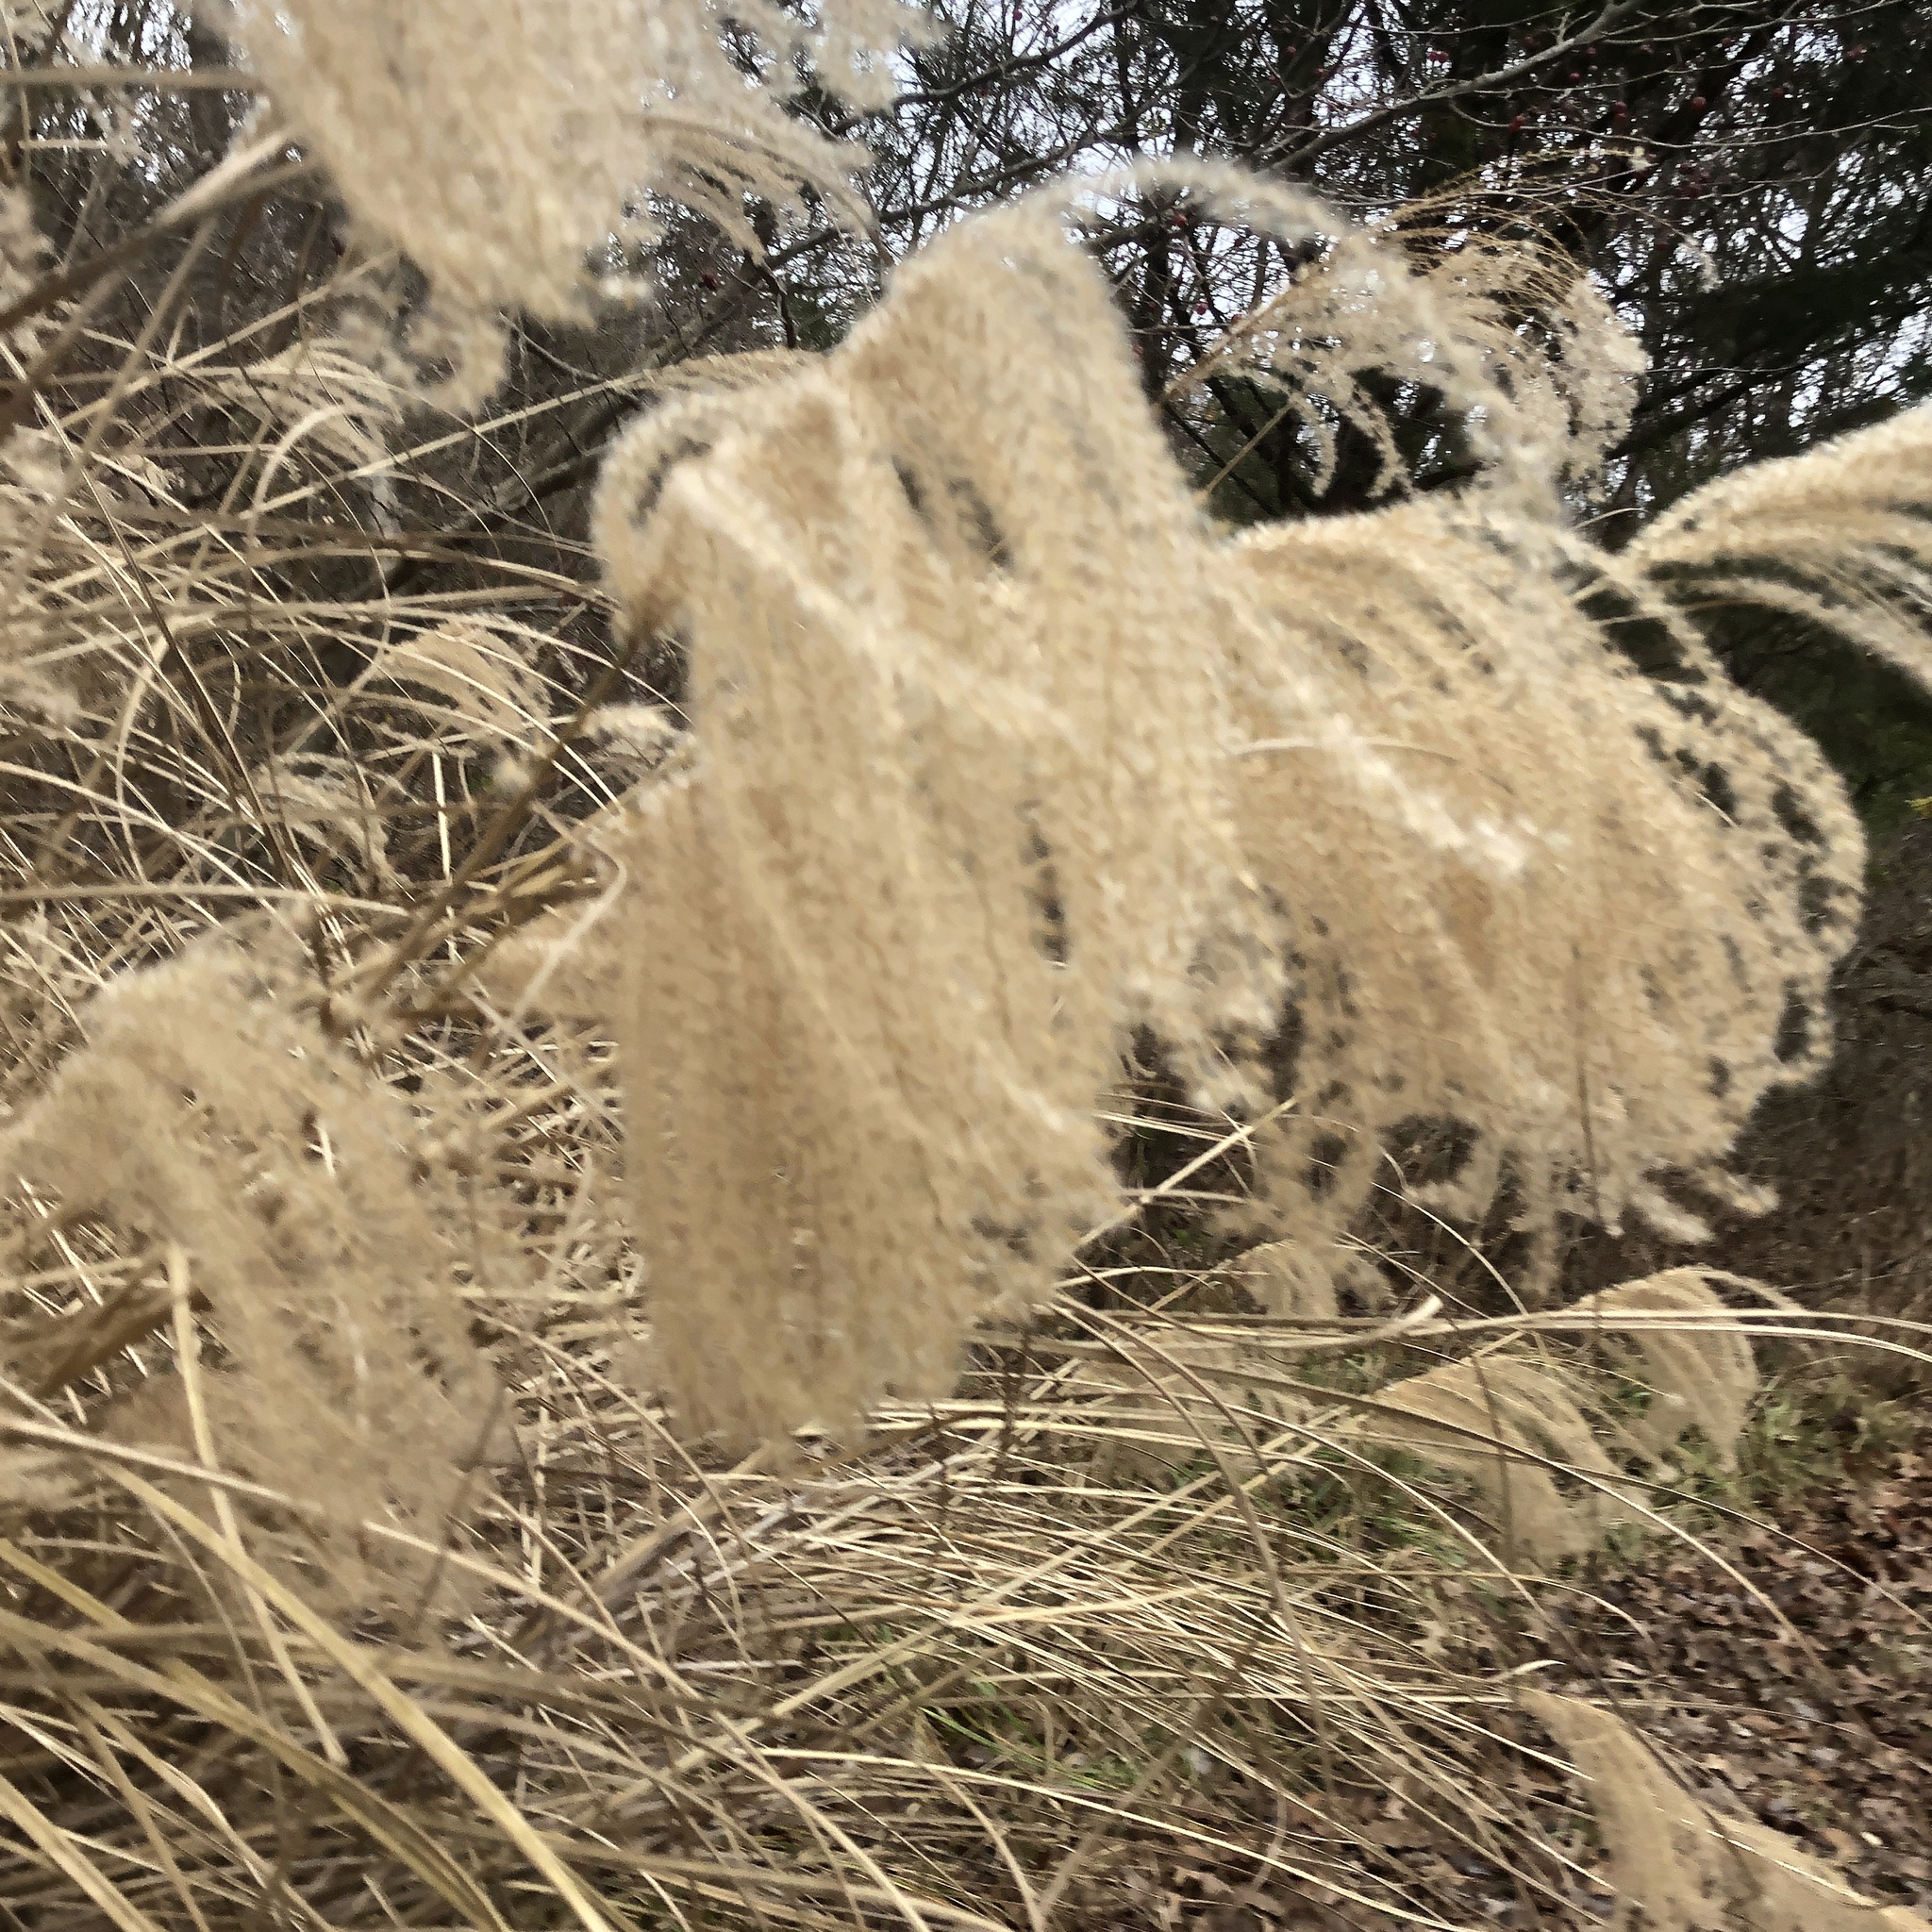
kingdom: Plantae
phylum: Tracheophyta
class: Liliopsida
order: Poales
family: Poaceae
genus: Miscanthus
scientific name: Miscanthus sinensis
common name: Chinese silvergrass
